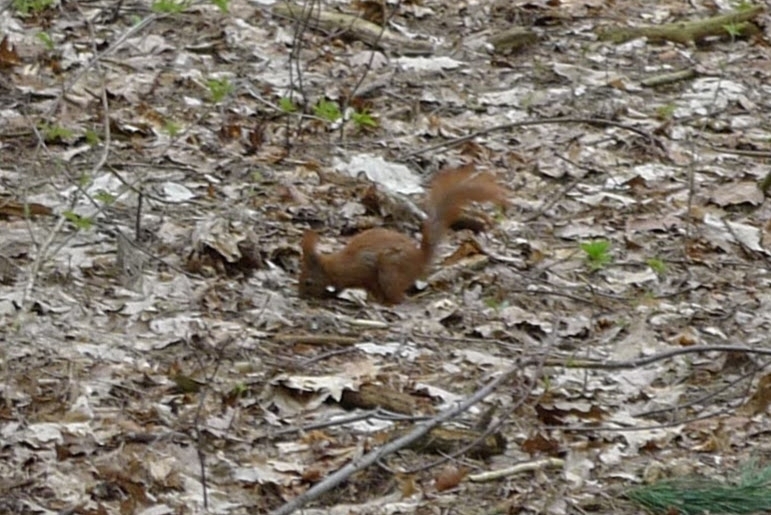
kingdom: Animalia
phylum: Chordata
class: Mammalia
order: Rodentia
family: Sciuridae
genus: Sciurus
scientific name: Sciurus vulgaris
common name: Eurasian red squirrel
